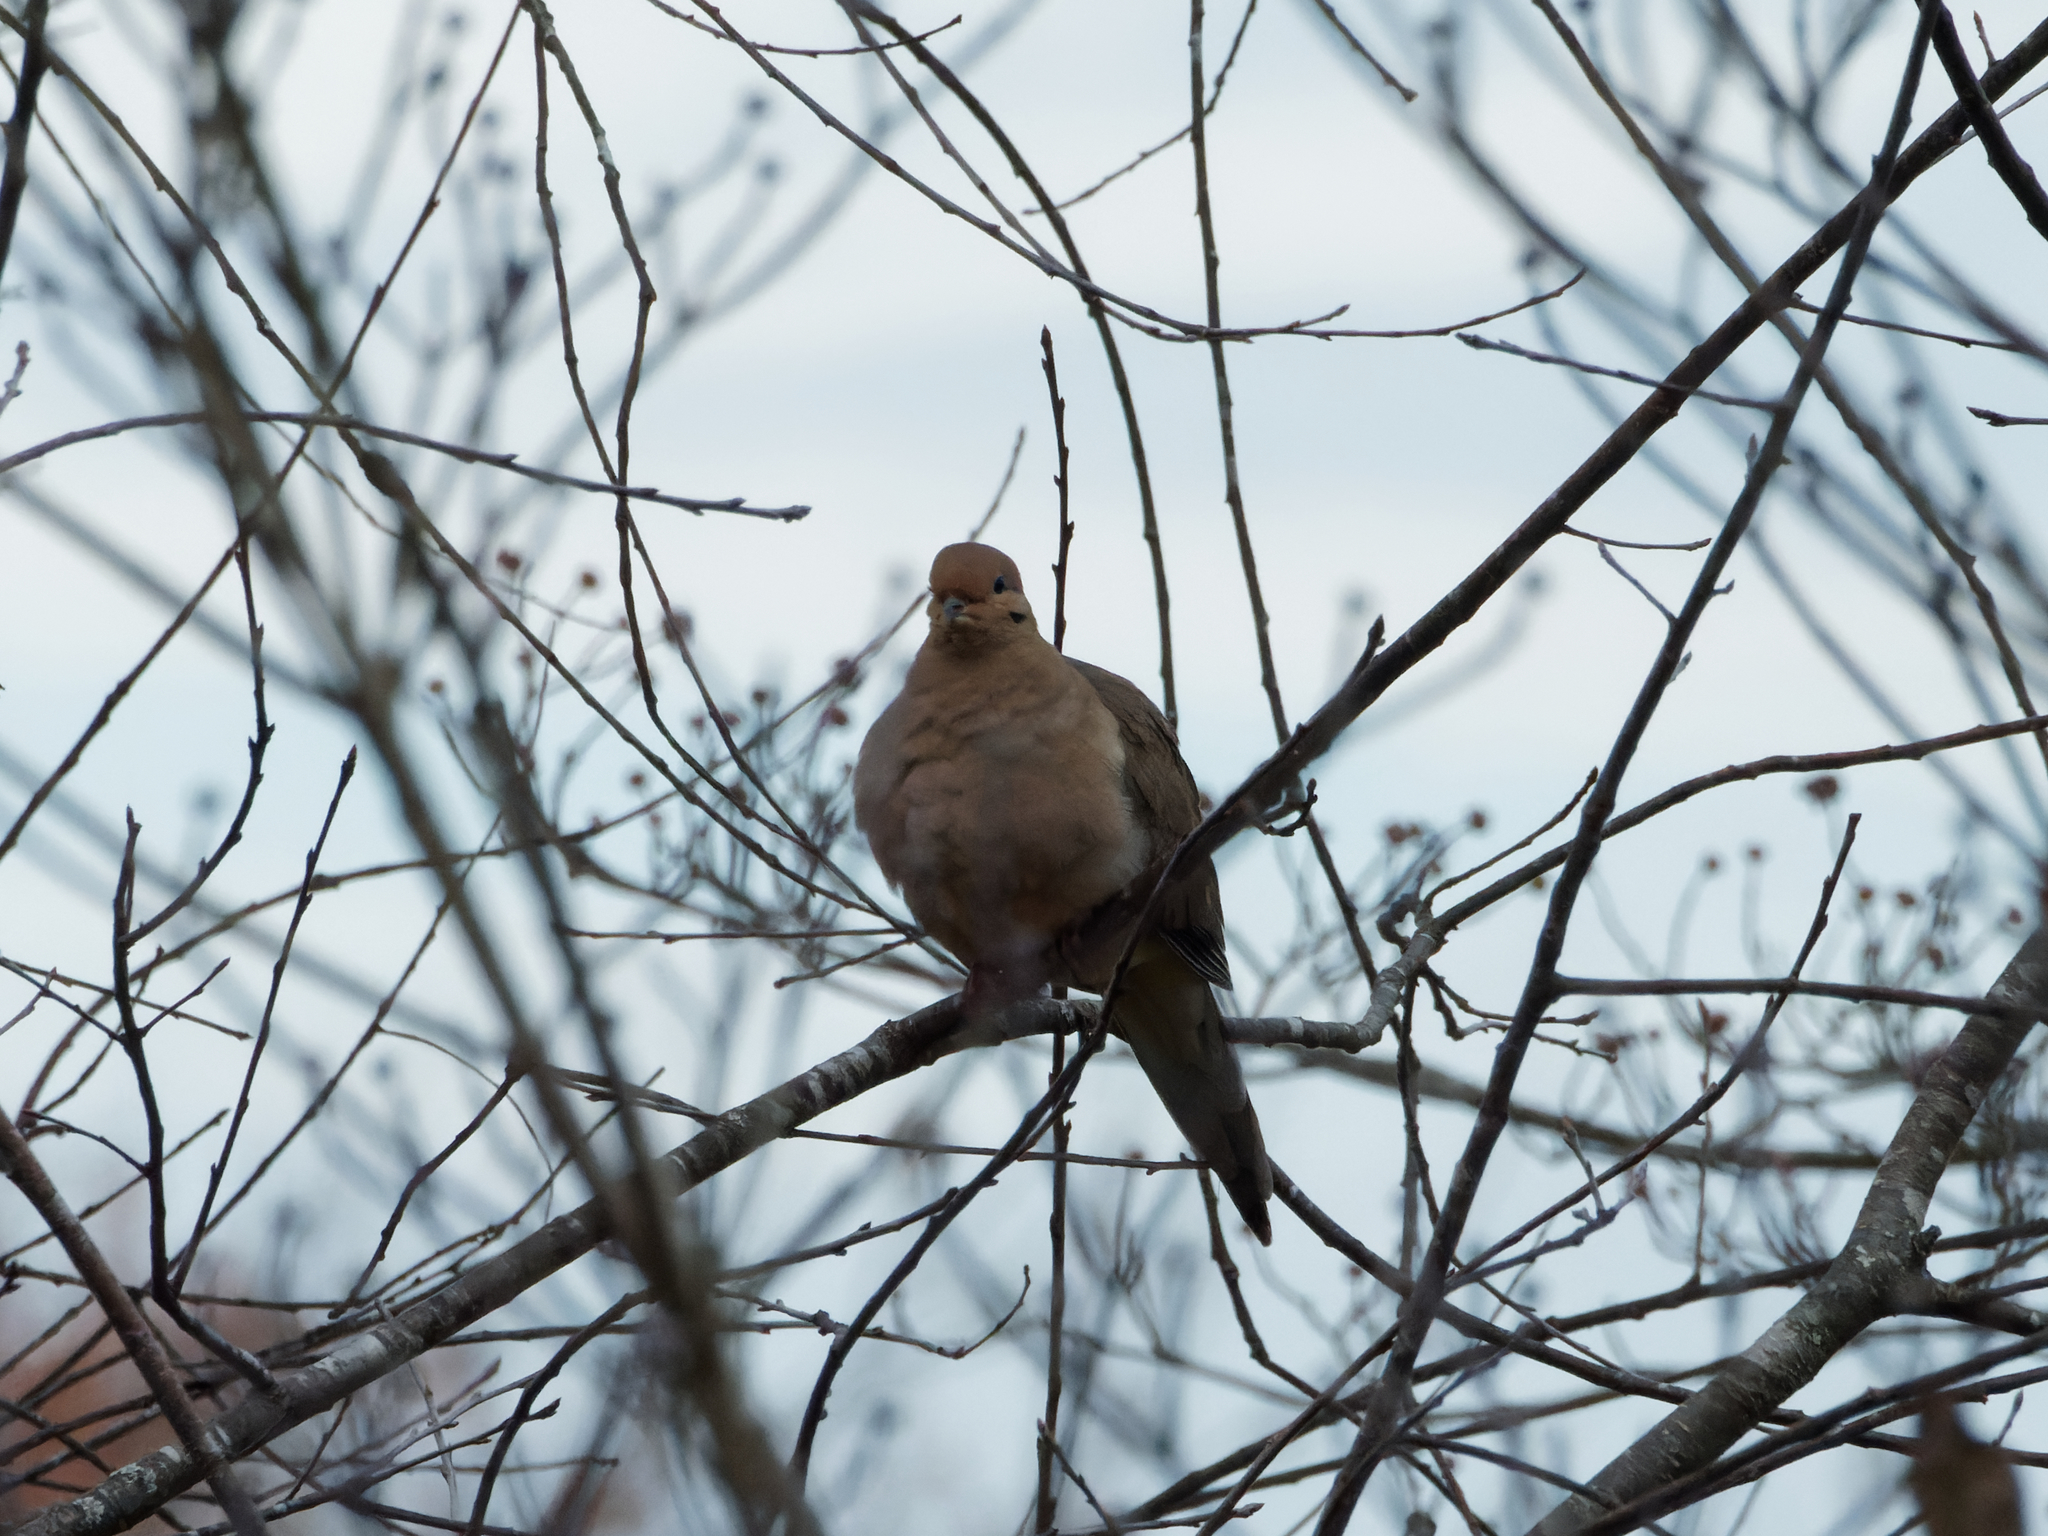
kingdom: Animalia
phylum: Chordata
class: Aves
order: Columbiformes
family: Columbidae
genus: Zenaida
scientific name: Zenaida macroura
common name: Mourning dove
